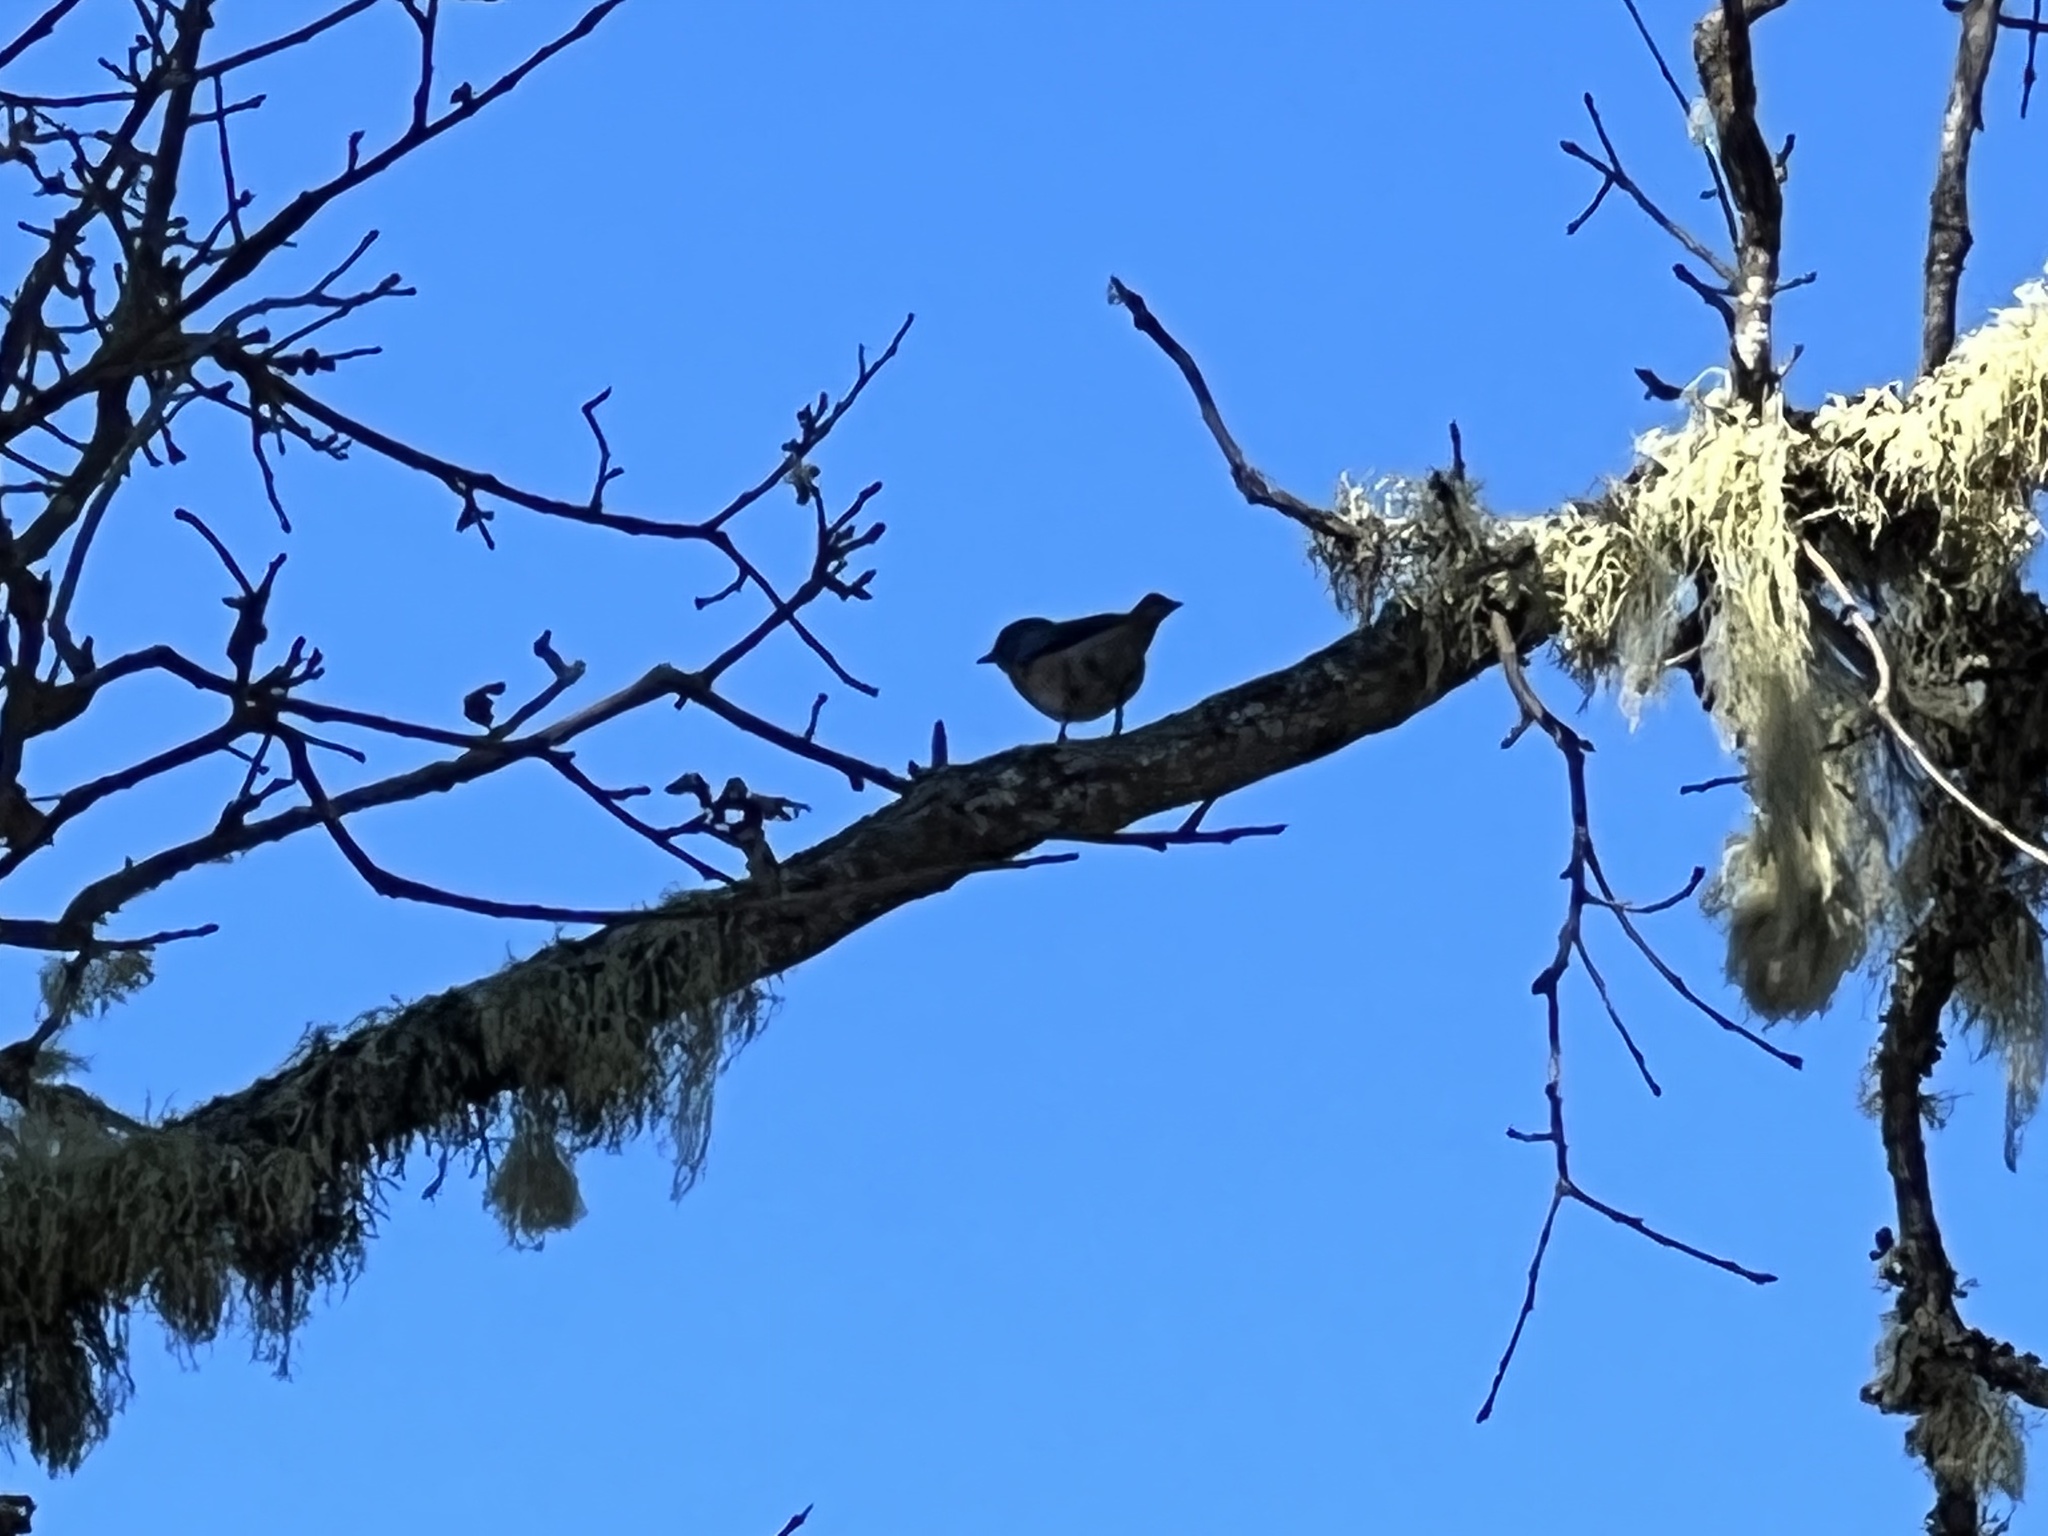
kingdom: Animalia
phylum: Chordata
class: Aves
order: Passeriformes
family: Turdidae
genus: Sialia
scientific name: Sialia mexicana
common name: Western bluebird
